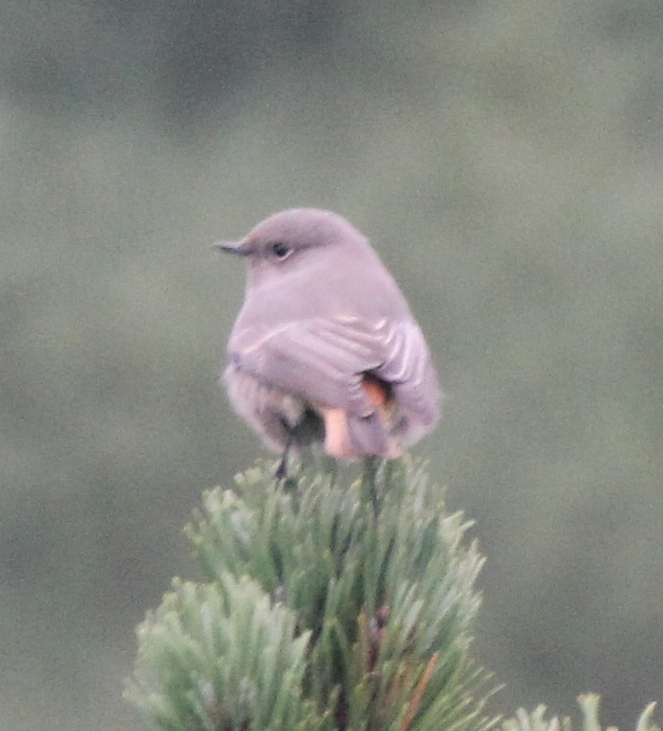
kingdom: Animalia
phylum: Chordata
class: Aves
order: Passeriformes
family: Muscicapidae
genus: Phoenicurus
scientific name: Phoenicurus ochruros
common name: Black redstart
